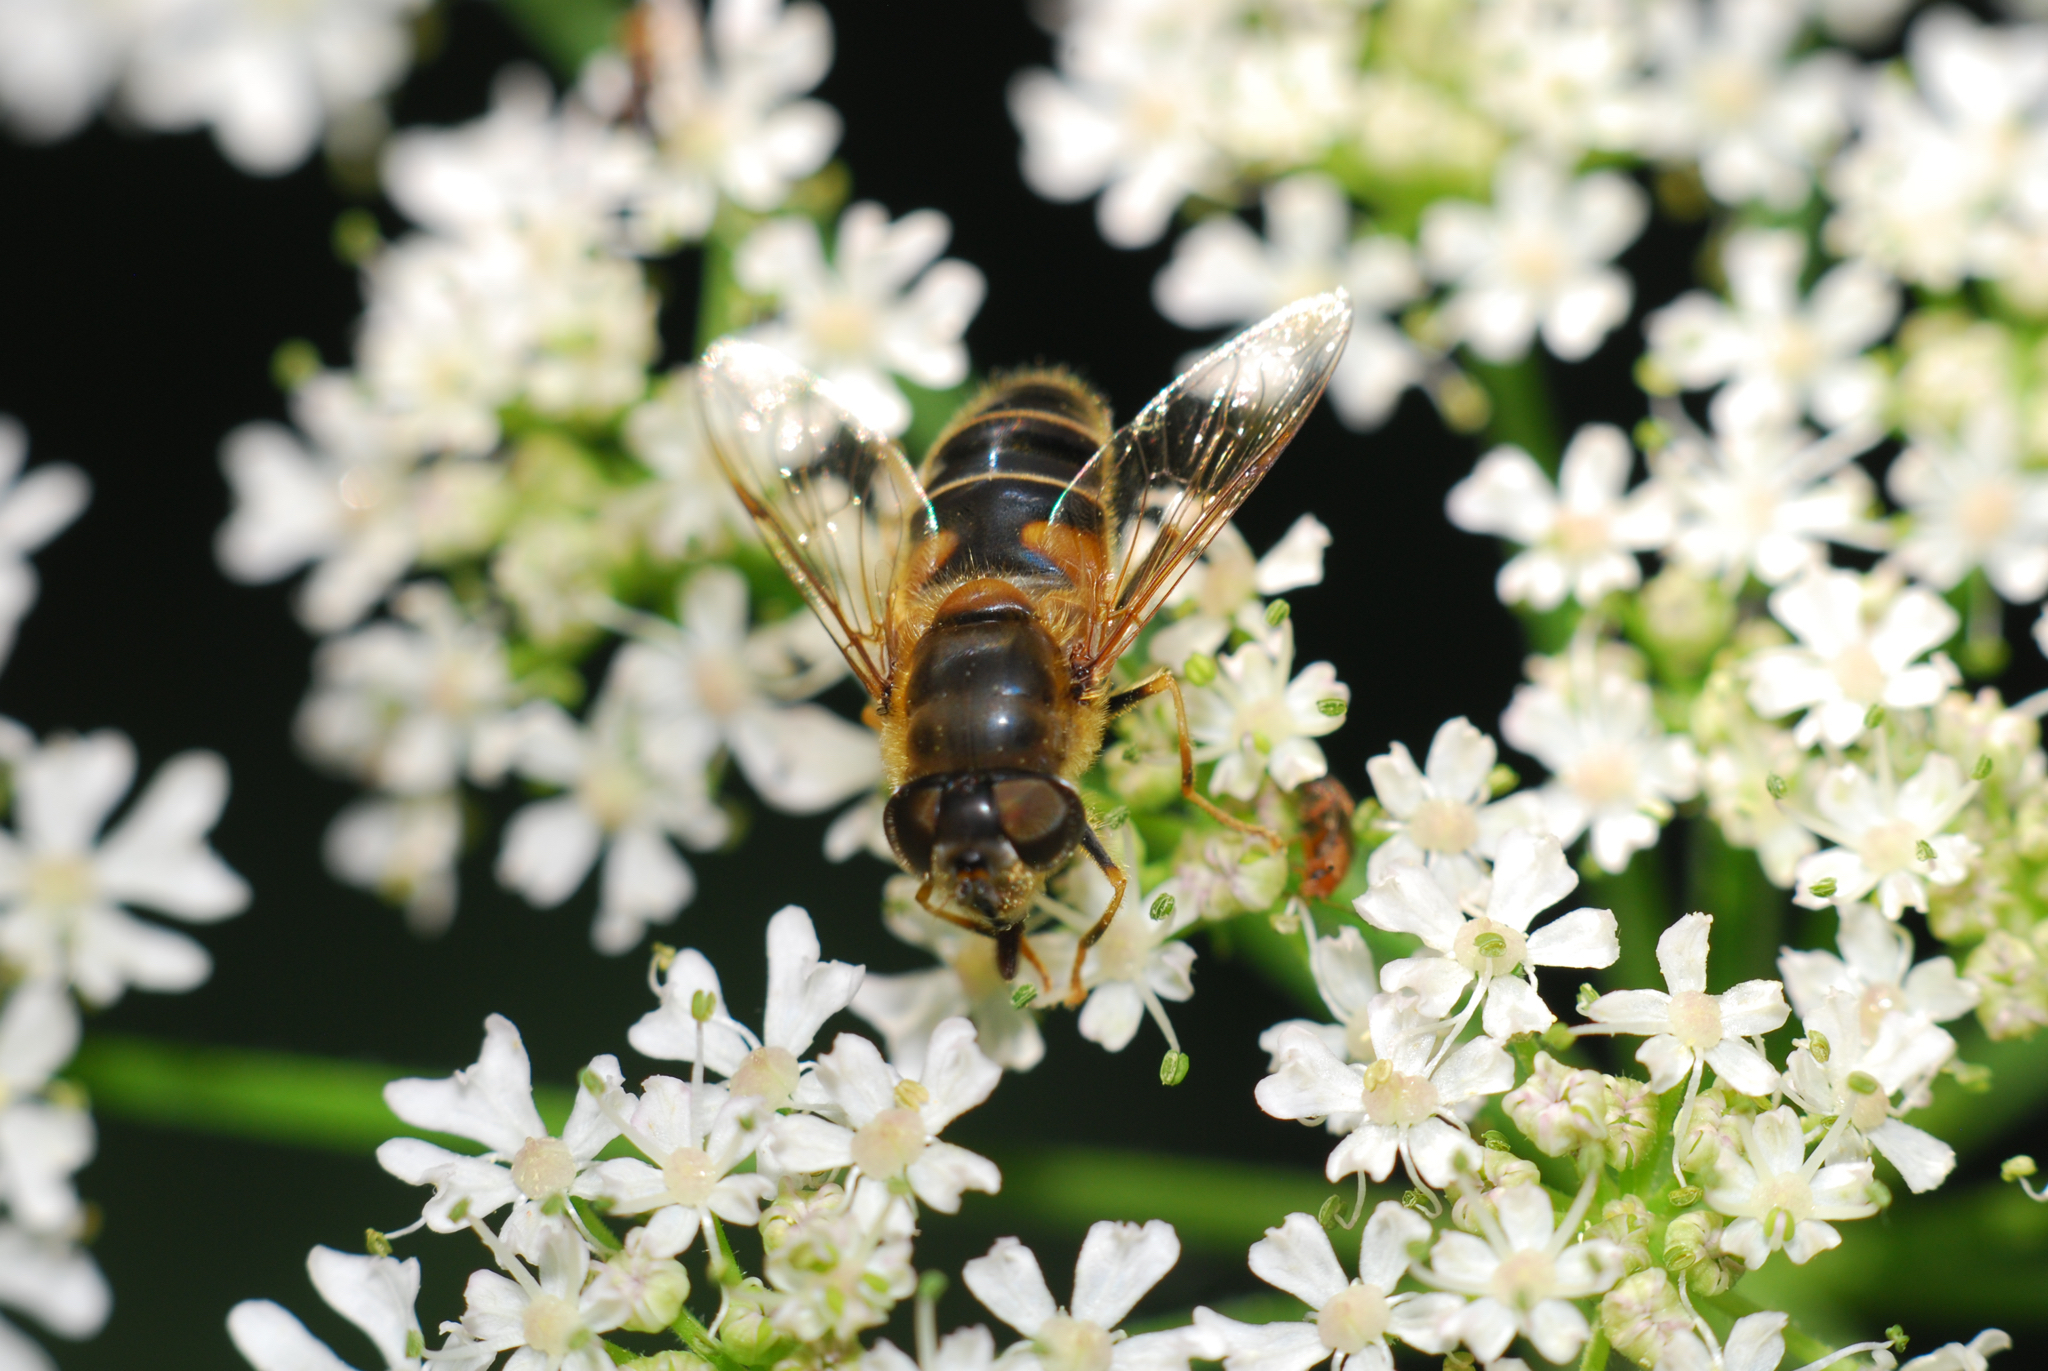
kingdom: Animalia
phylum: Arthropoda
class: Insecta
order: Diptera
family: Syrphidae
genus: Eristalis
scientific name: Eristalis pertinax
